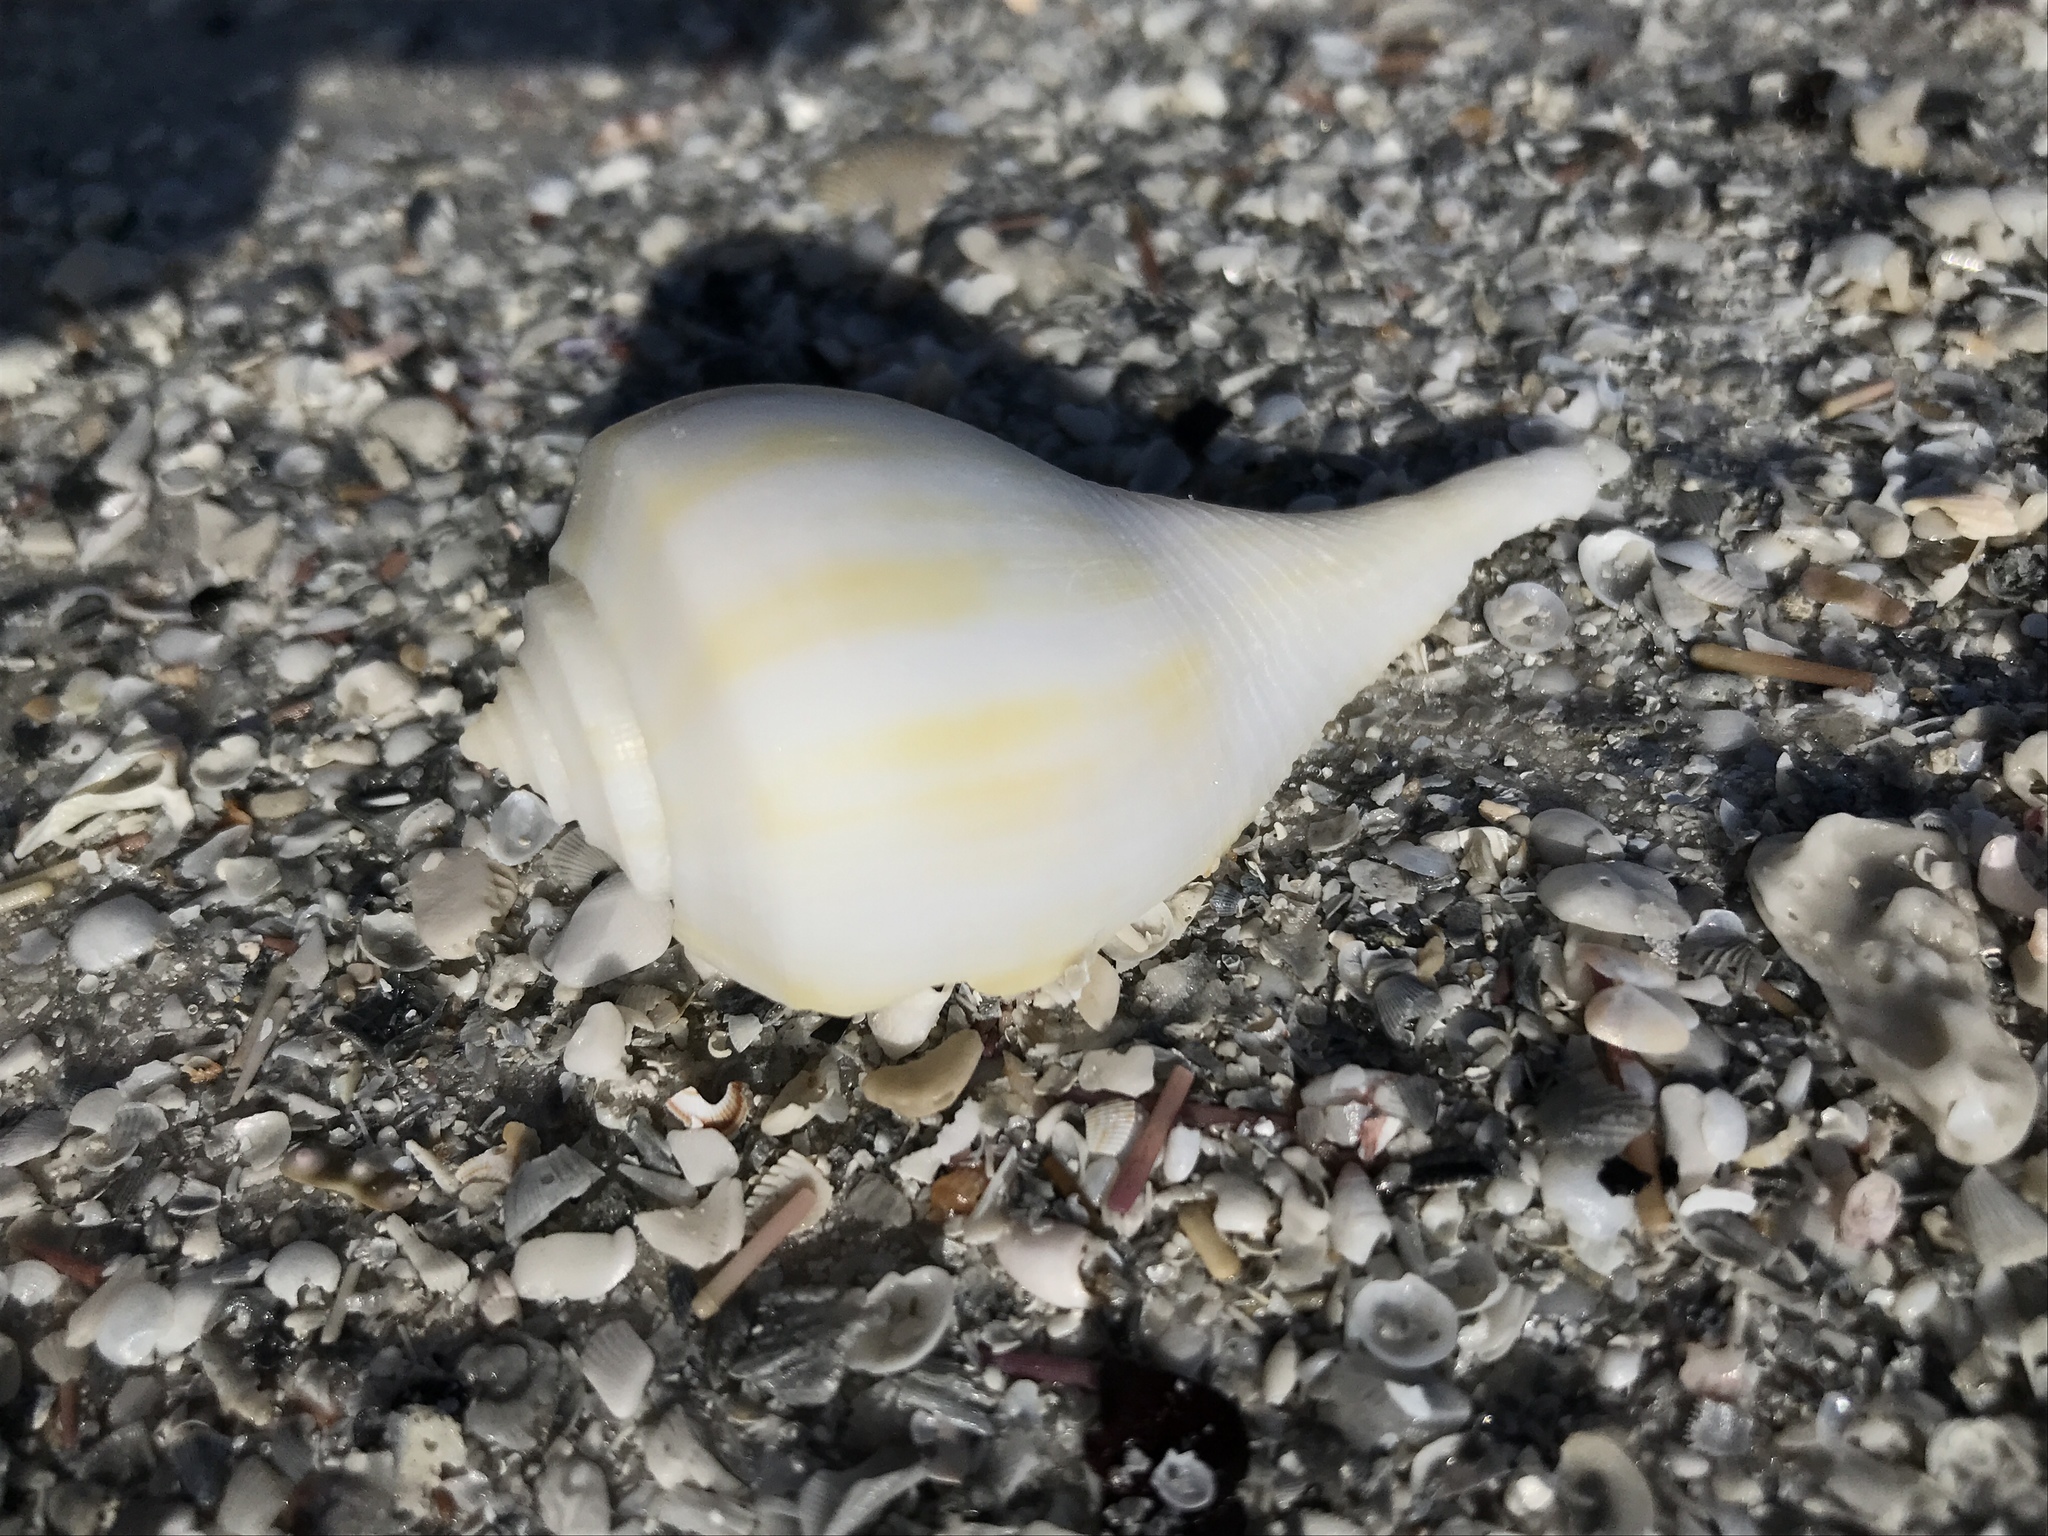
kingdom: Animalia
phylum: Mollusca
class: Gastropoda
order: Neogastropoda
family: Busyconidae
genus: Fulguropsis
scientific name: Fulguropsis pyruloides
